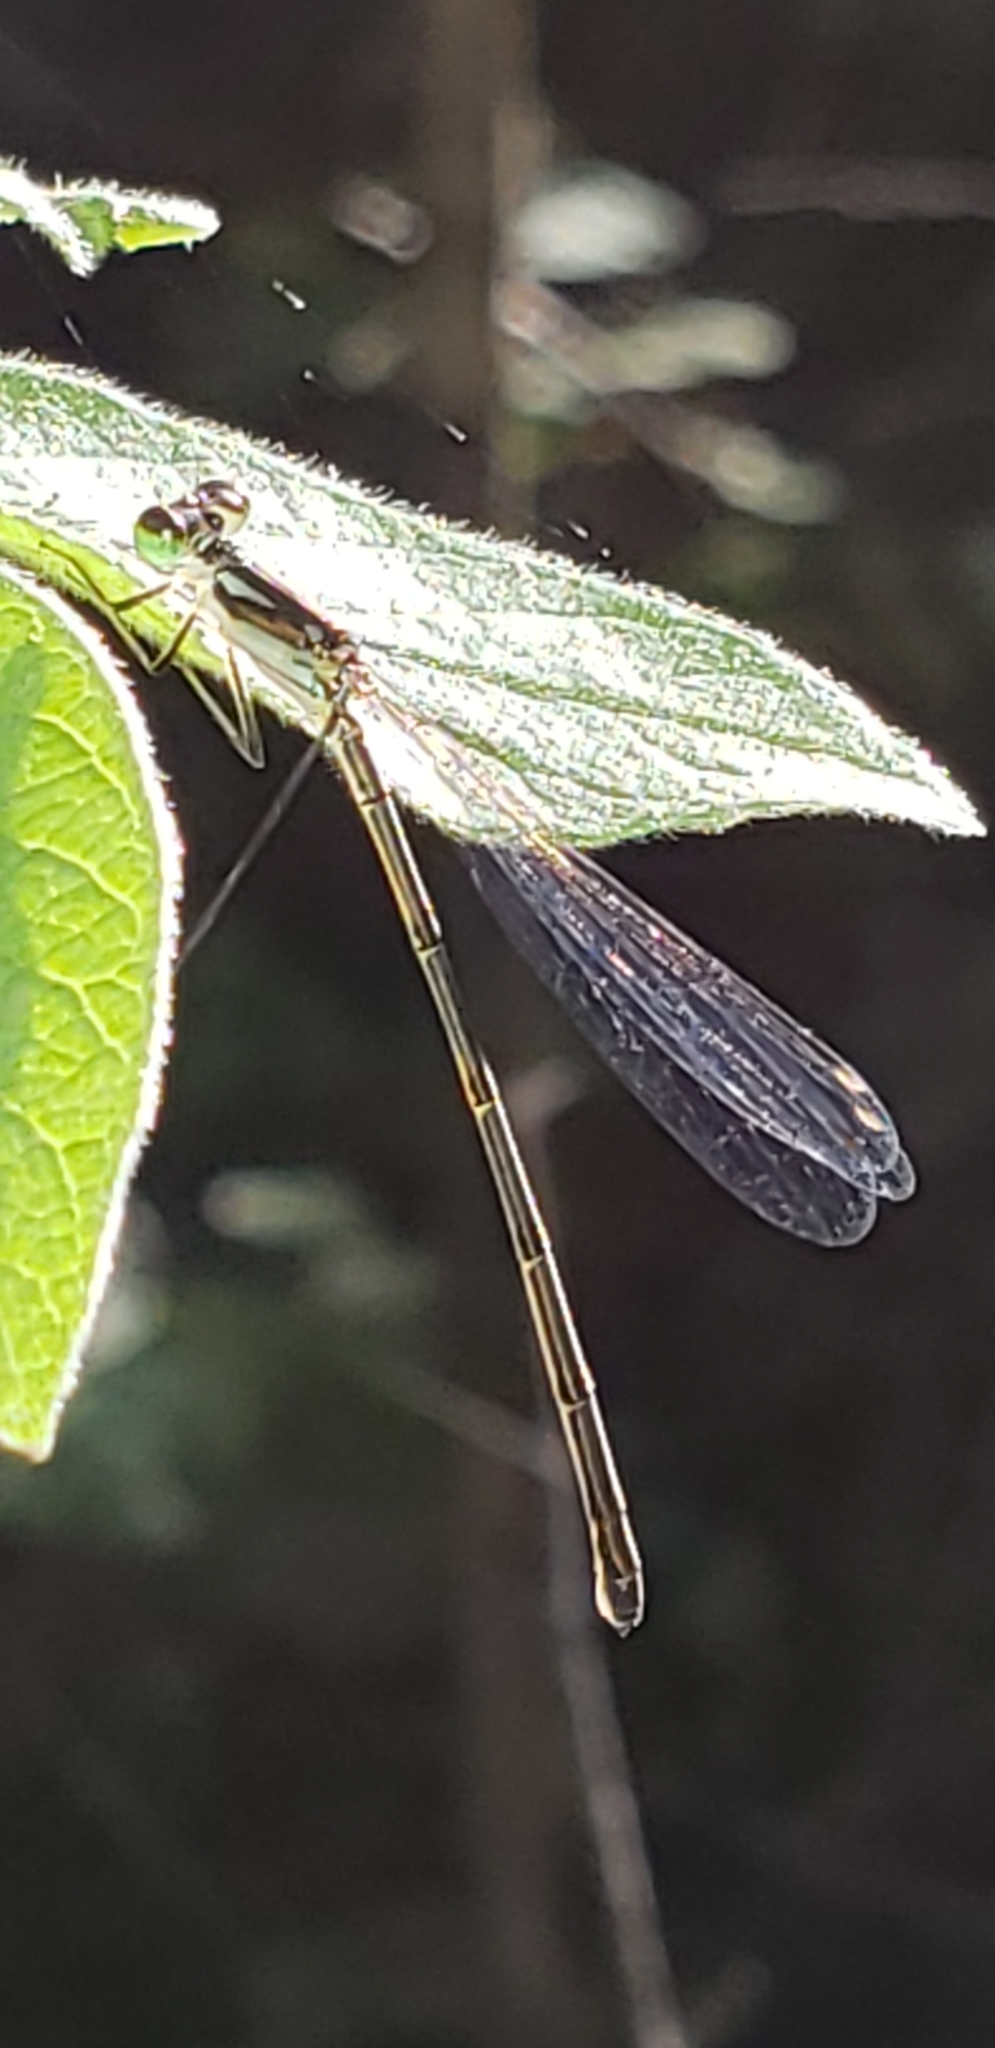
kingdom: Animalia
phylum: Arthropoda
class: Insecta
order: Odonata
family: Coenagrionidae
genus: Ischnura
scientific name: Ischnura posita
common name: Fragile forktail
